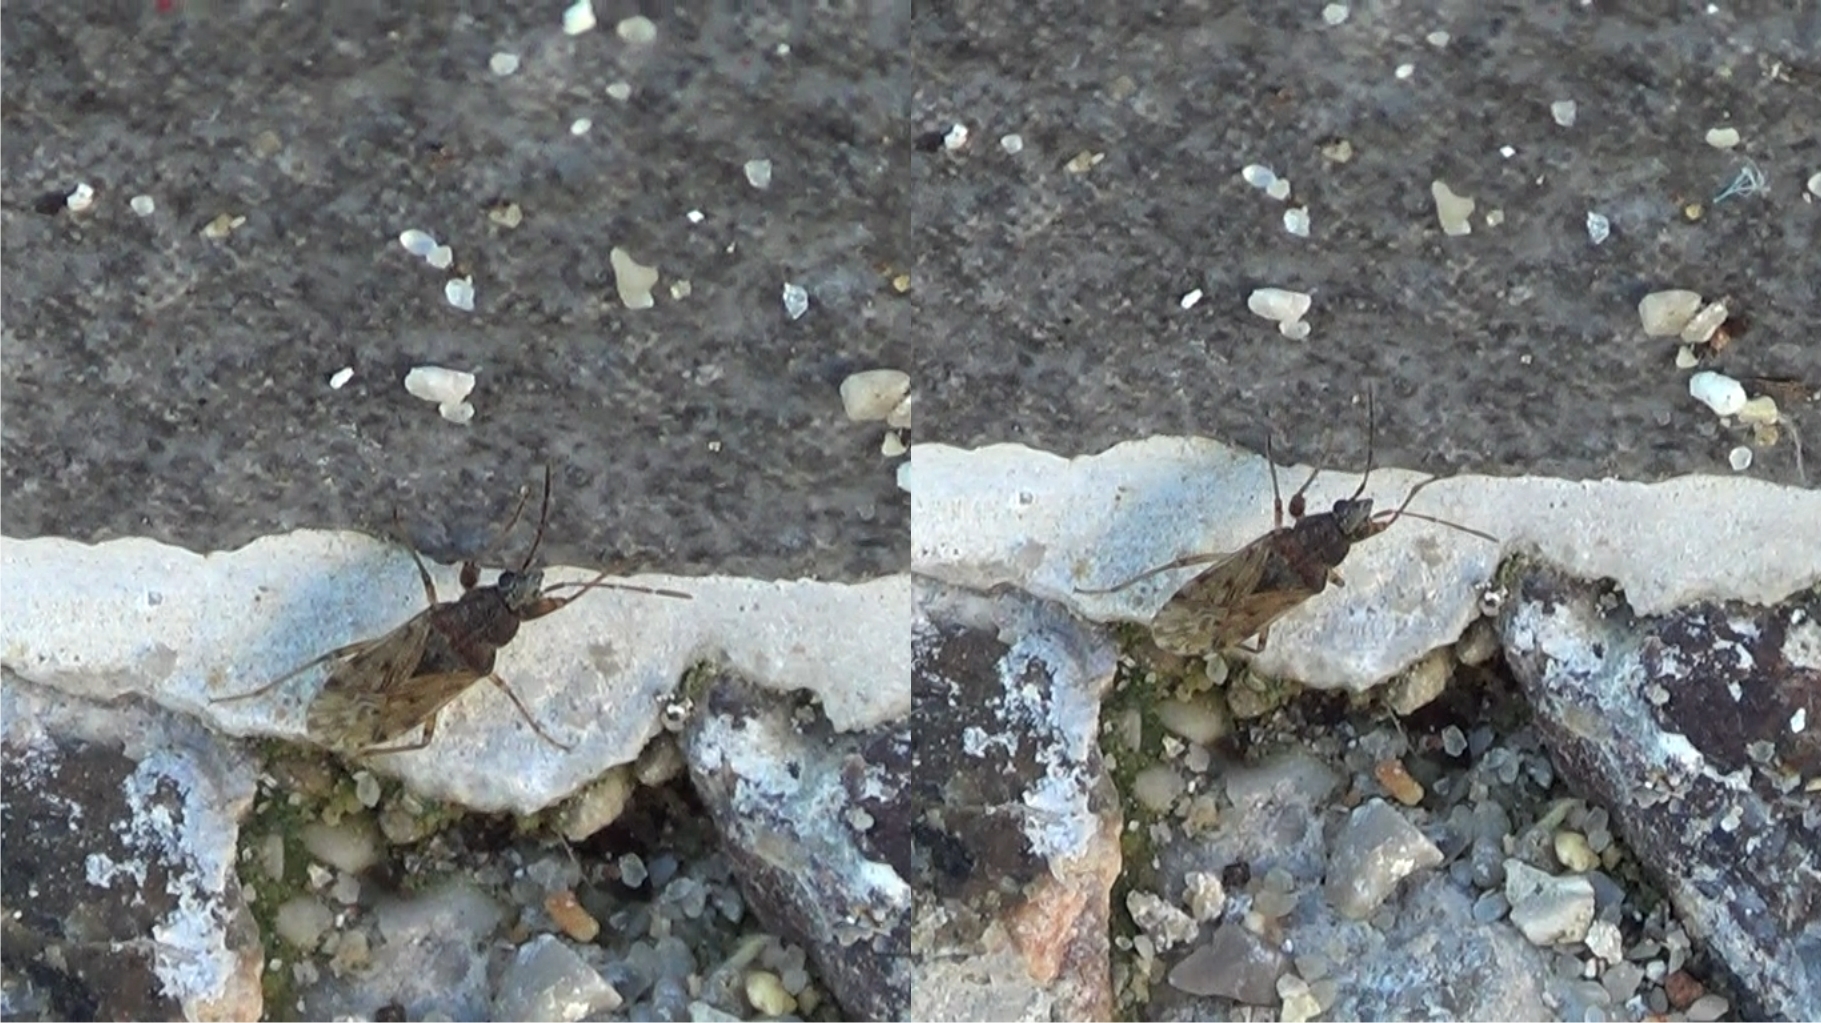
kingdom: Animalia
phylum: Arthropoda
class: Insecta
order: Hemiptera
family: Rhyparochromidae
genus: Remaudiereana
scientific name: Remaudiereana annulipes
